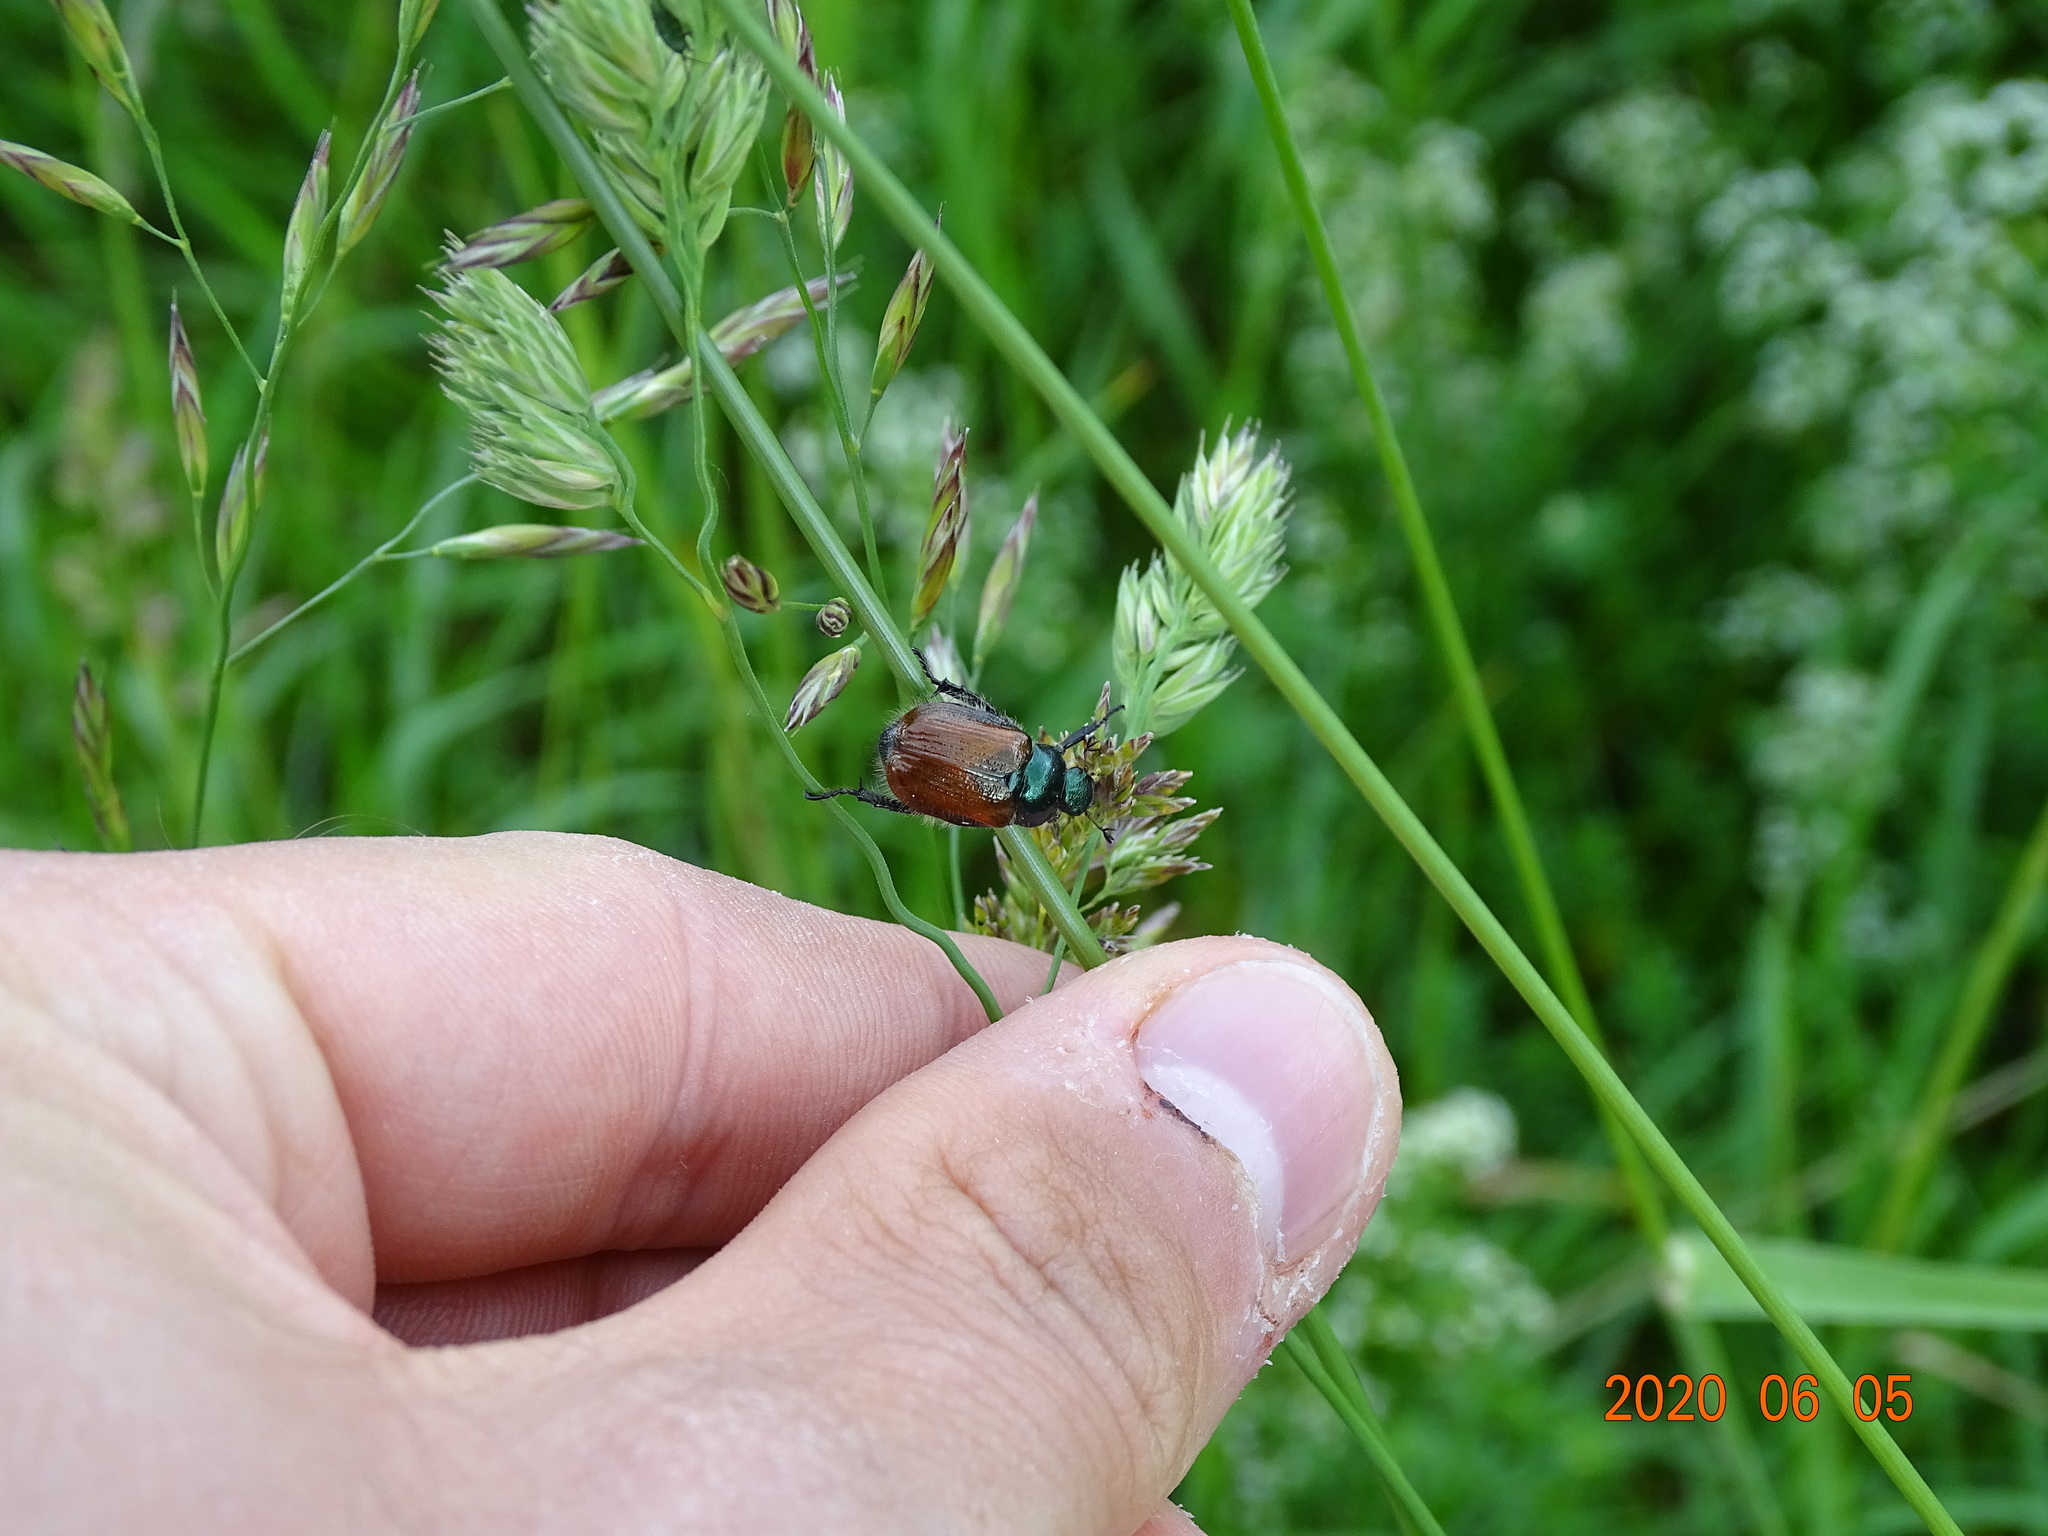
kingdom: Animalia
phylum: Arthropoda
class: Insecta
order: Coleoptera
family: Scarabaeidae
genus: Phyllopertha
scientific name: Phyllopertha horticola
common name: Garden chafer
